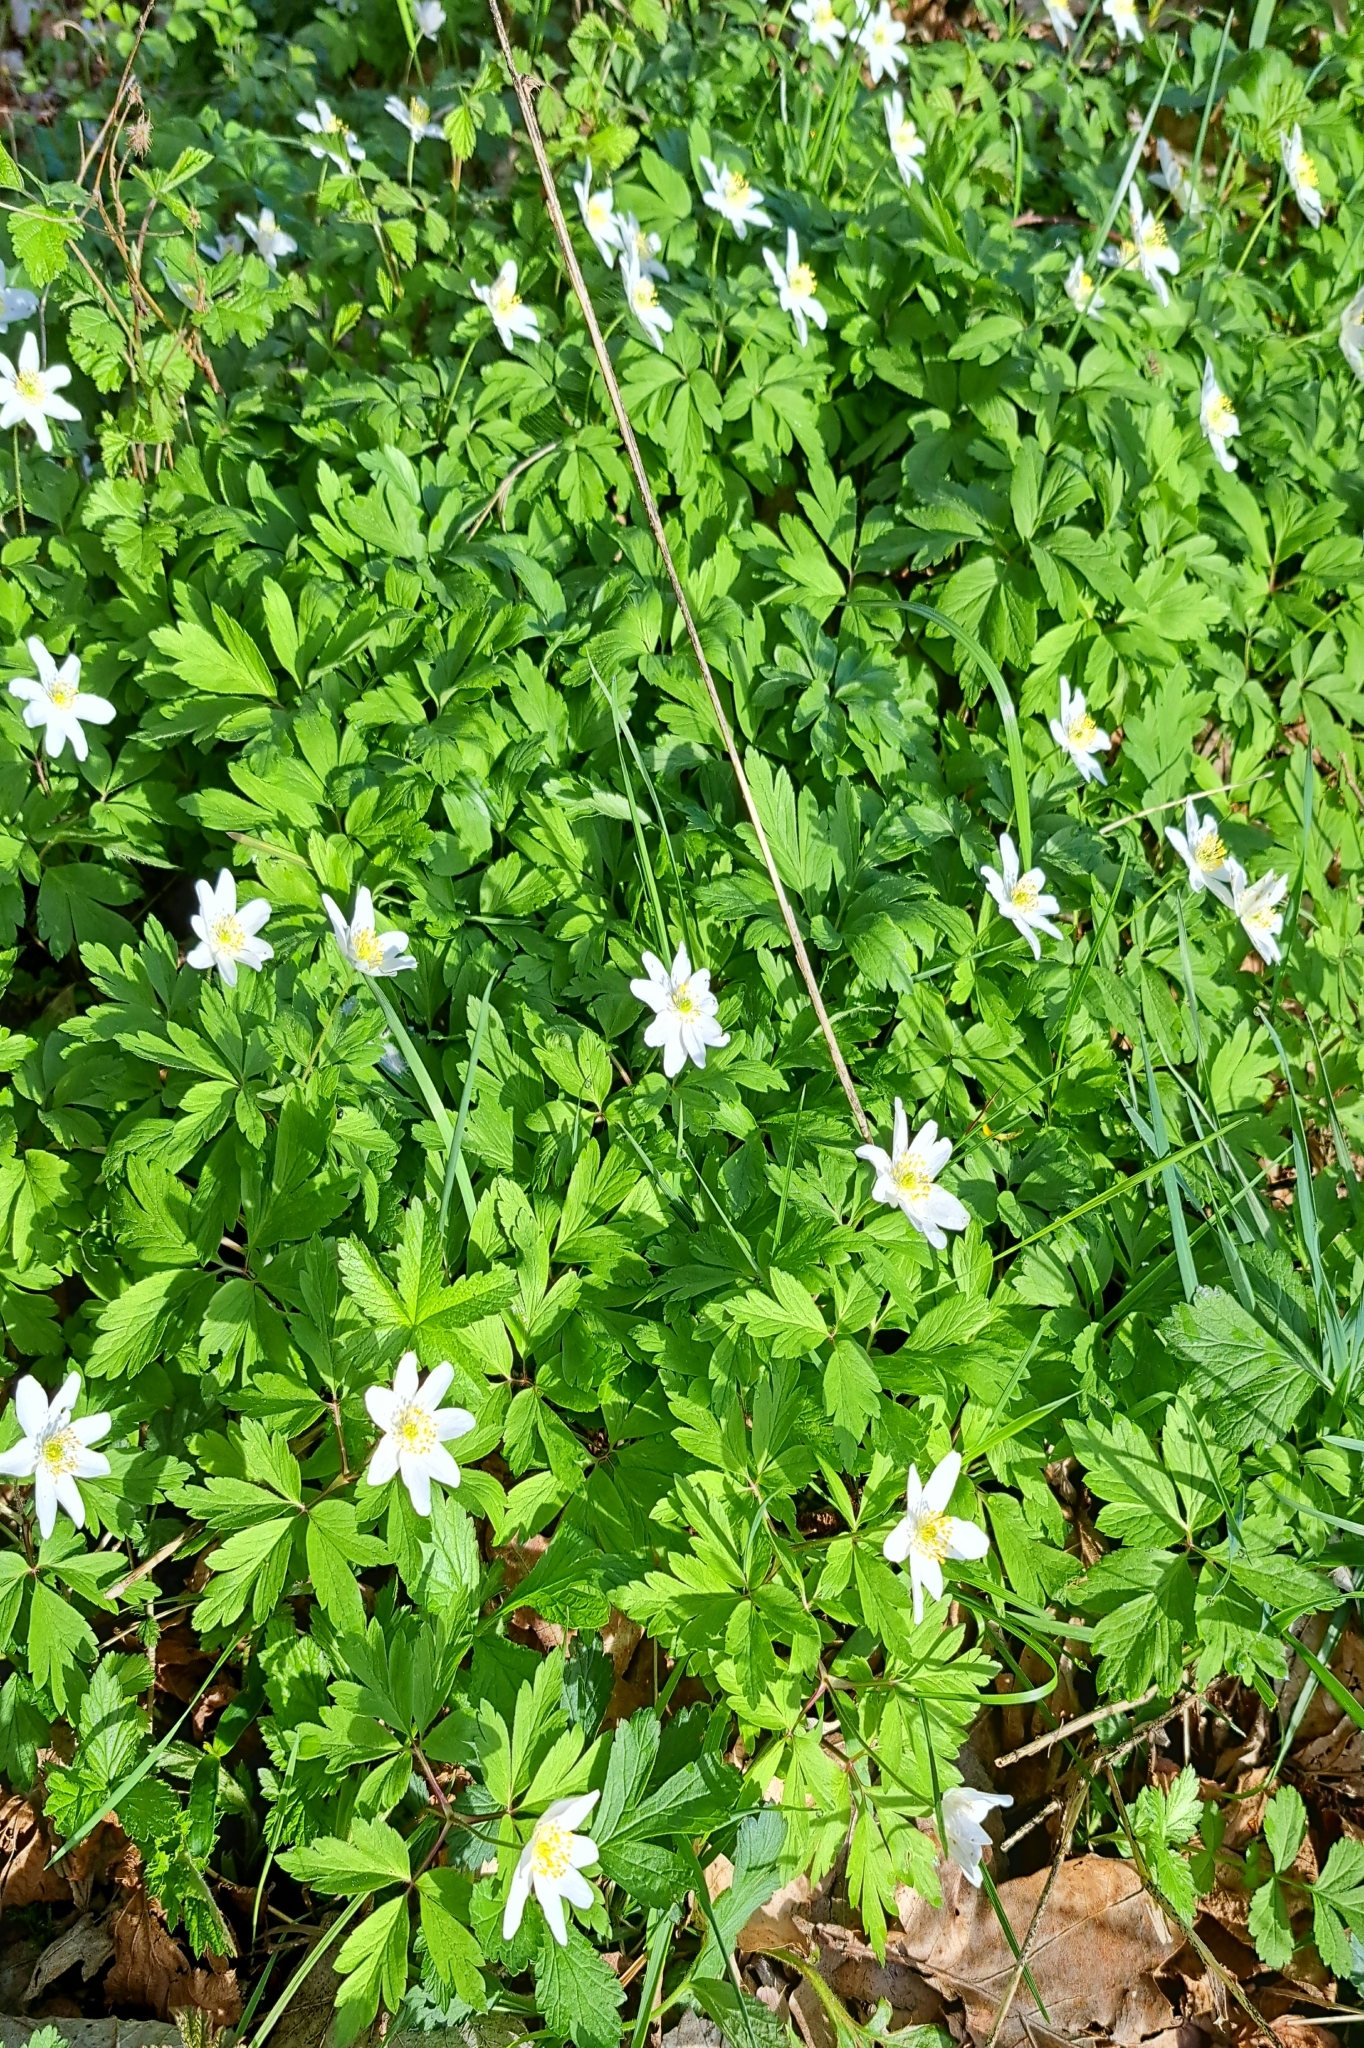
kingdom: Plantae
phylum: Tracheophyta
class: Magnoliopsida
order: Ranunculales
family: Ranunculaceae
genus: Anemone
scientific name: Anemone nemorosa
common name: Wood anemone
